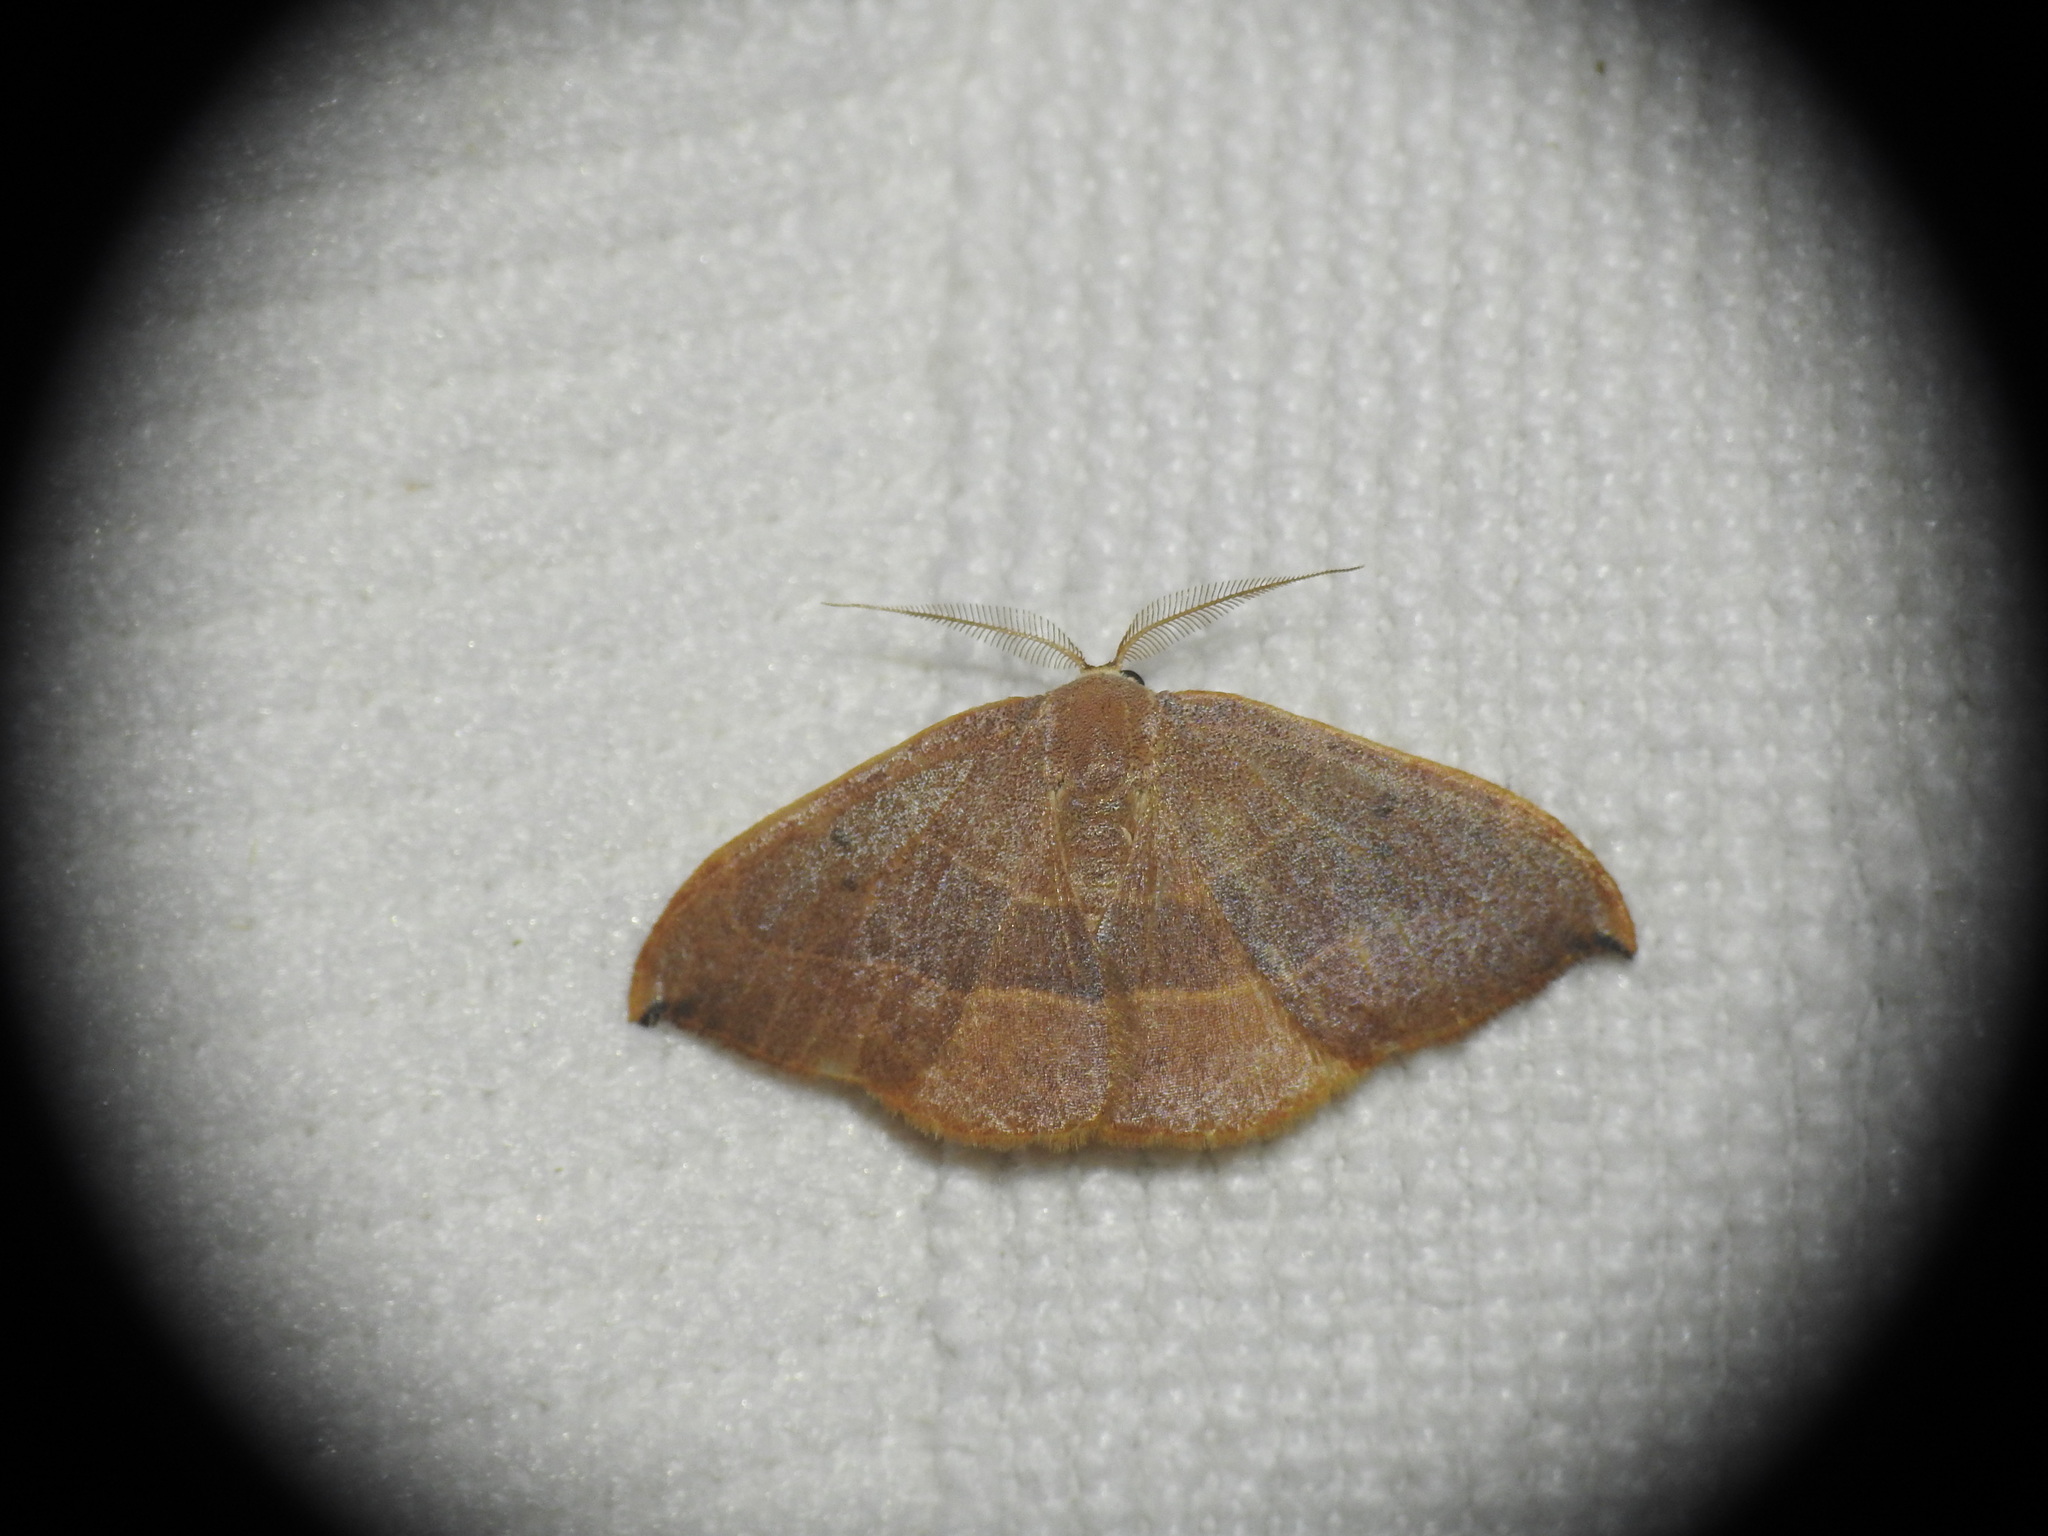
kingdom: Animalia
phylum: Arthropoda
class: Insecta
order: Lepidoptera
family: Drepanidae
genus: Watsonalla
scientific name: Watsonalla uncinula
